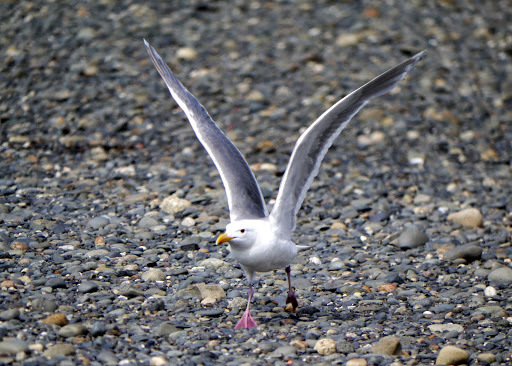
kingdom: Animalia
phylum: Chordata
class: Aves
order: Charadriiformes
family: Laridae
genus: Larus
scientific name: Larus glaucescens
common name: Glaucous-winged gull
